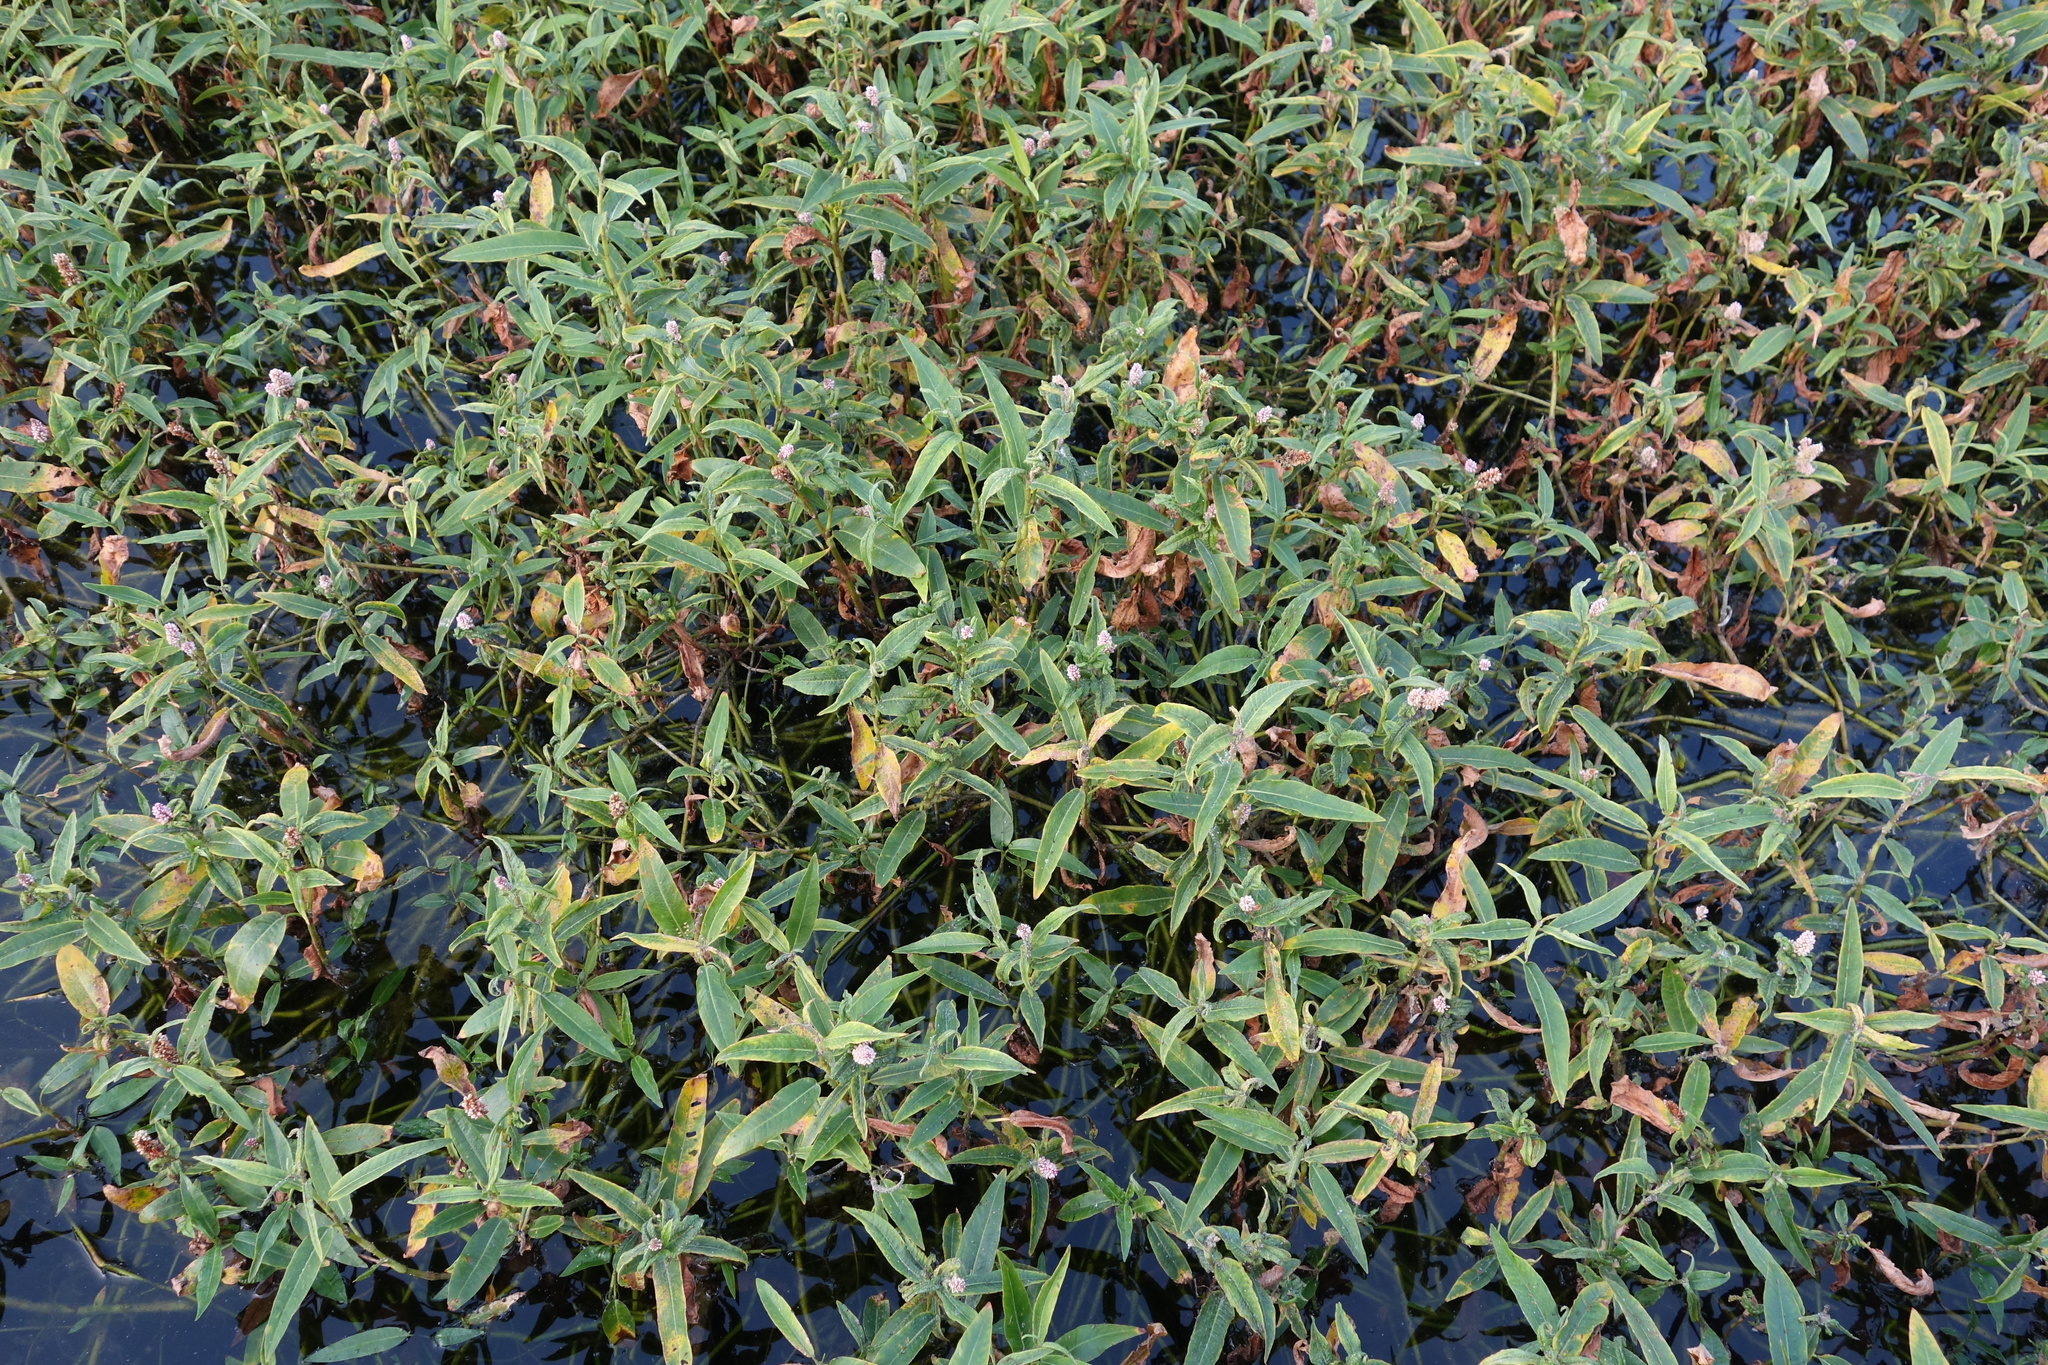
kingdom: Plantae
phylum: Tracheophyta
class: Magnoliopsida
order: Caryophyllales
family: Polygonaceae
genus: Persicaria
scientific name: Persicaria amphibia
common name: Amphibious bistort
